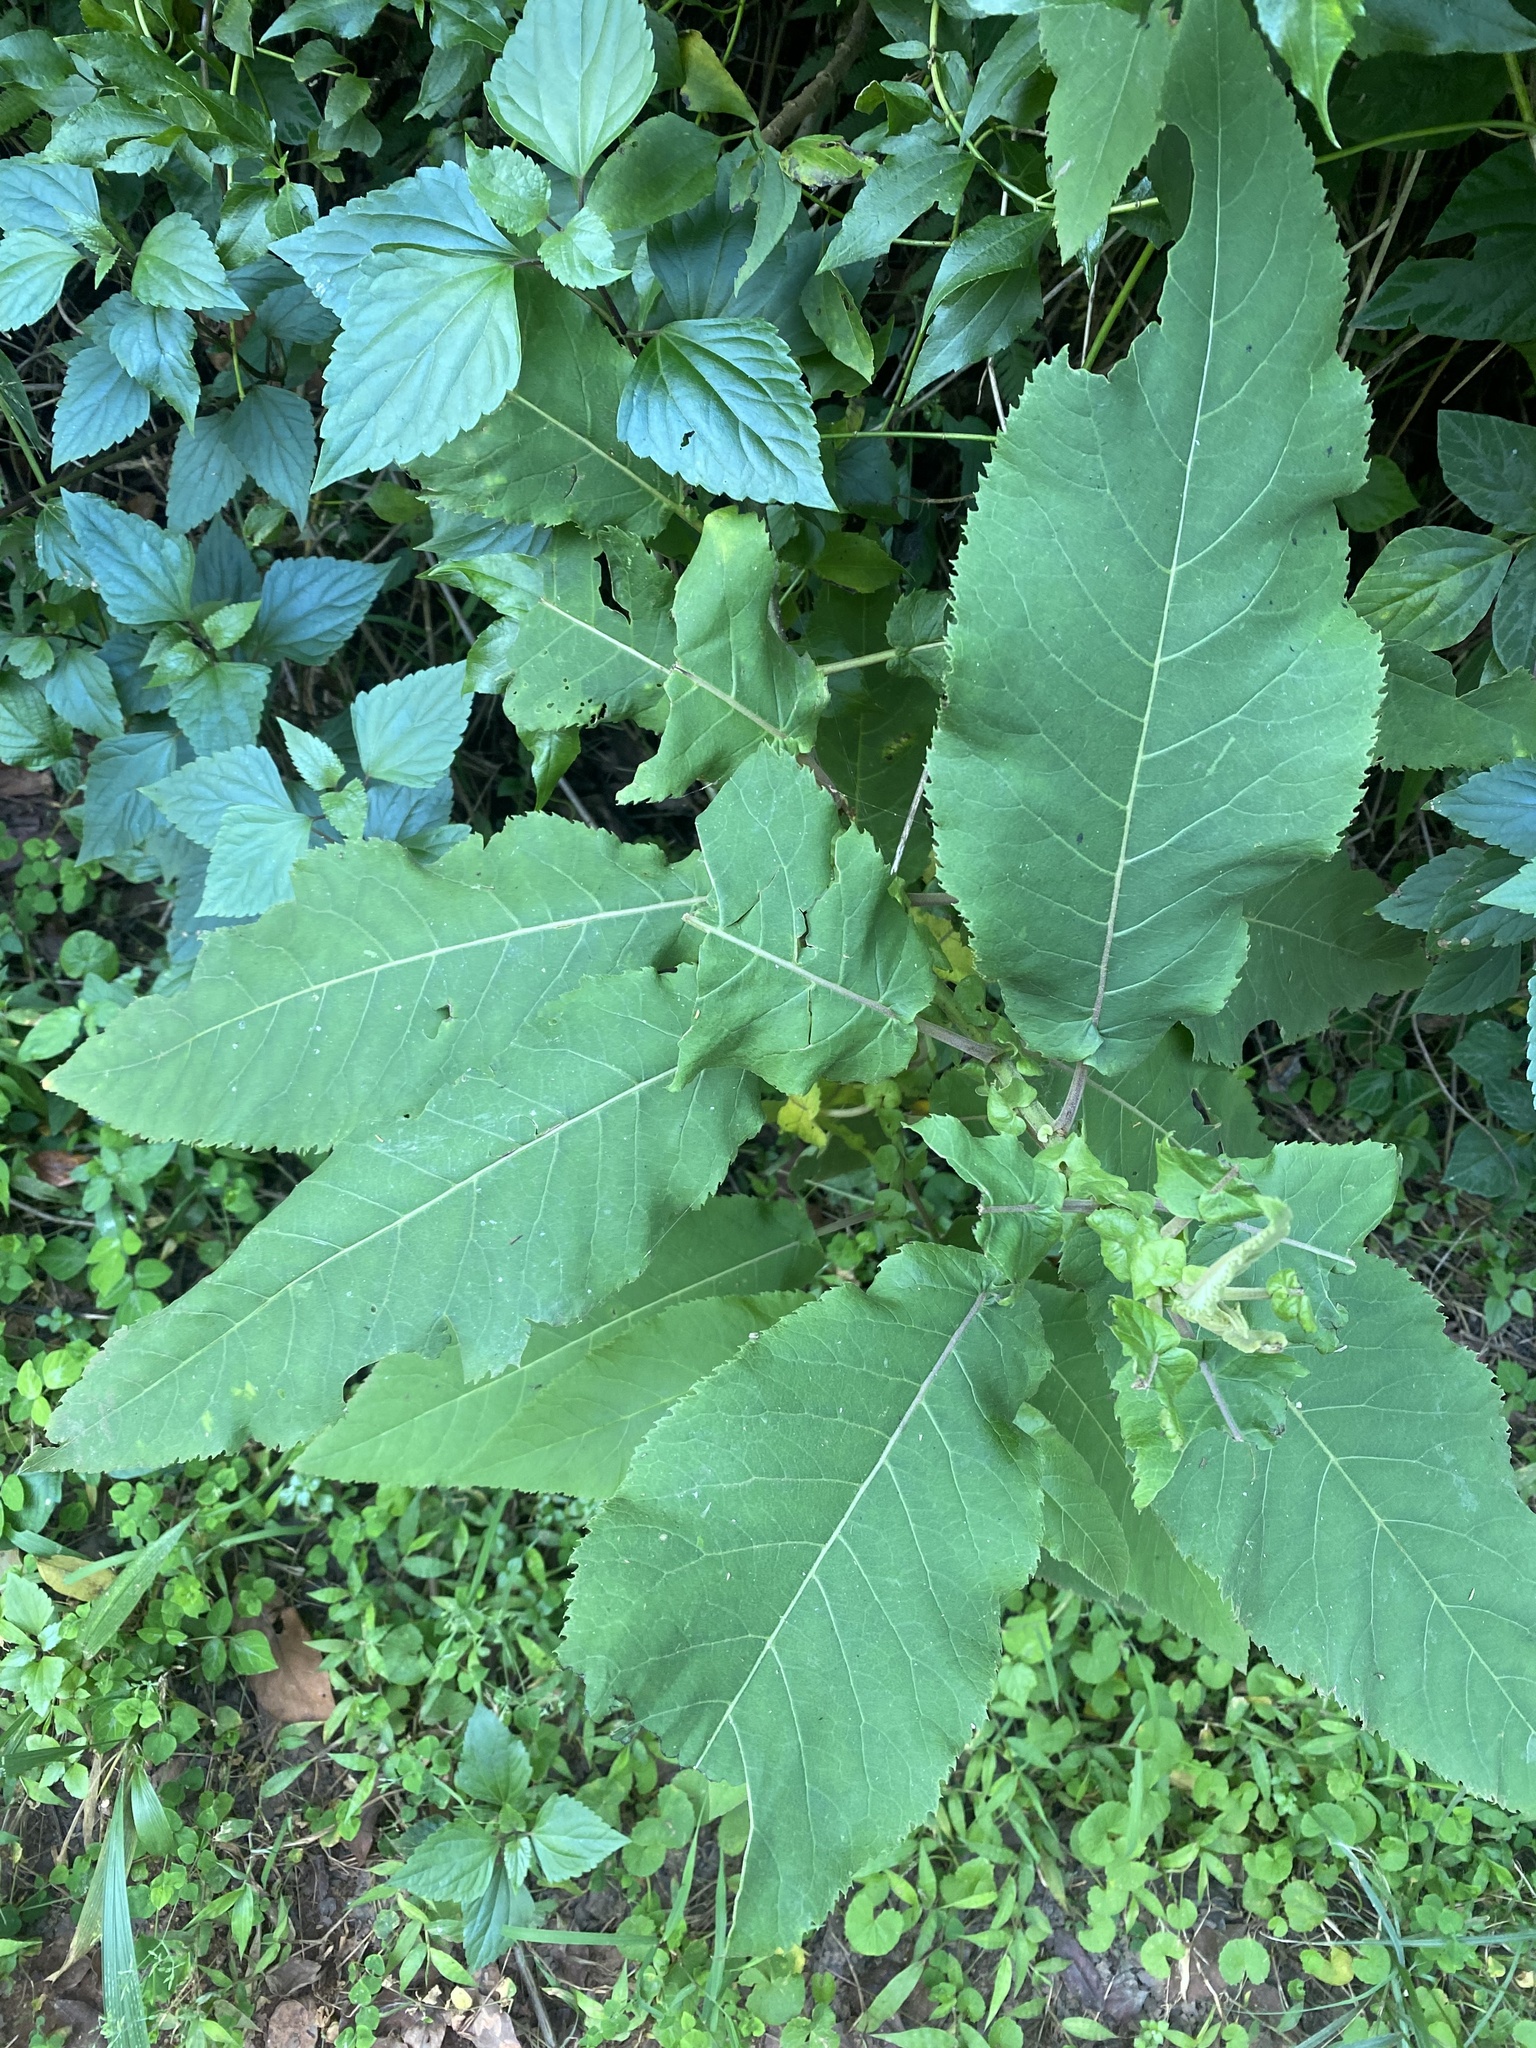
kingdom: Plantae
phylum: Tracheophyta
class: Magnoliopsida
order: Asterales
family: Asteraceae
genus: Gymnanthemum
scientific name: Gymnanthemum myrianthum
